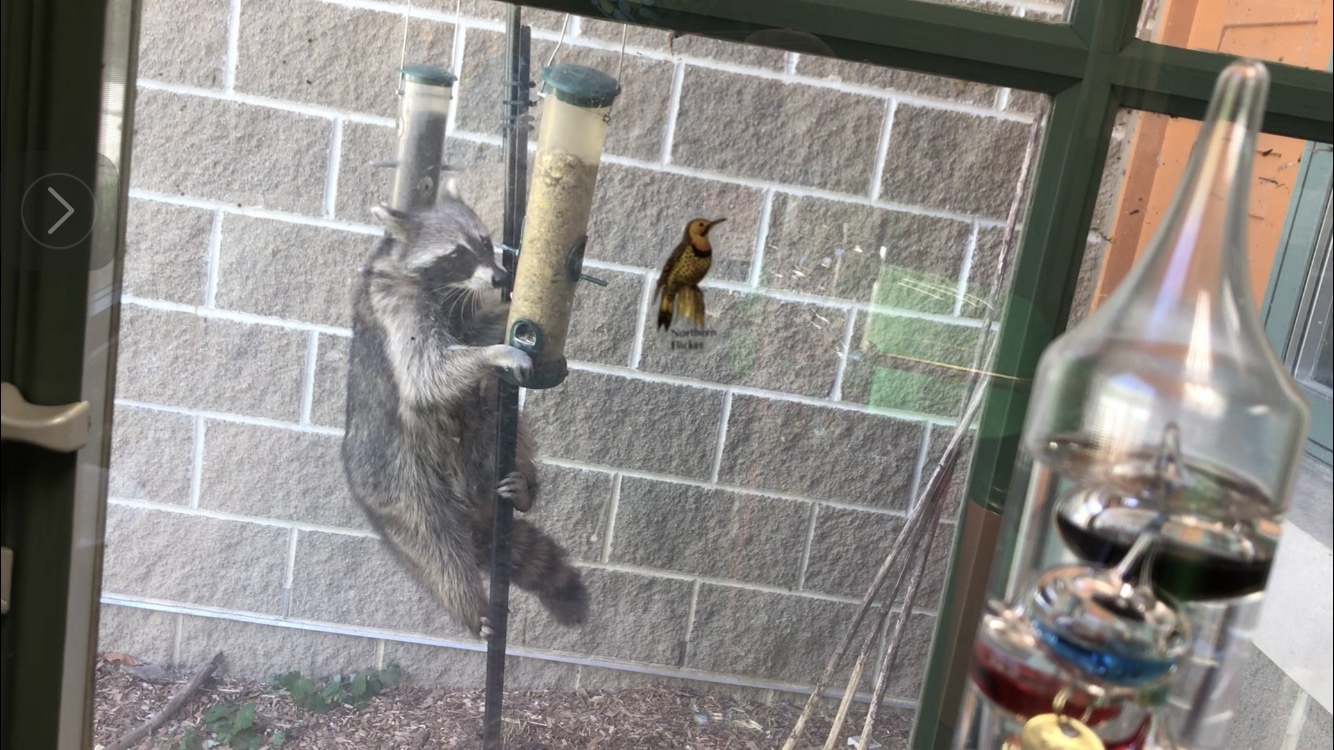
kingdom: Animalia
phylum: Chordata
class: Mammalia
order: Carnivora
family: Procyonidae
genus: Procyon
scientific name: Procyon lotor
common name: Raccoon
